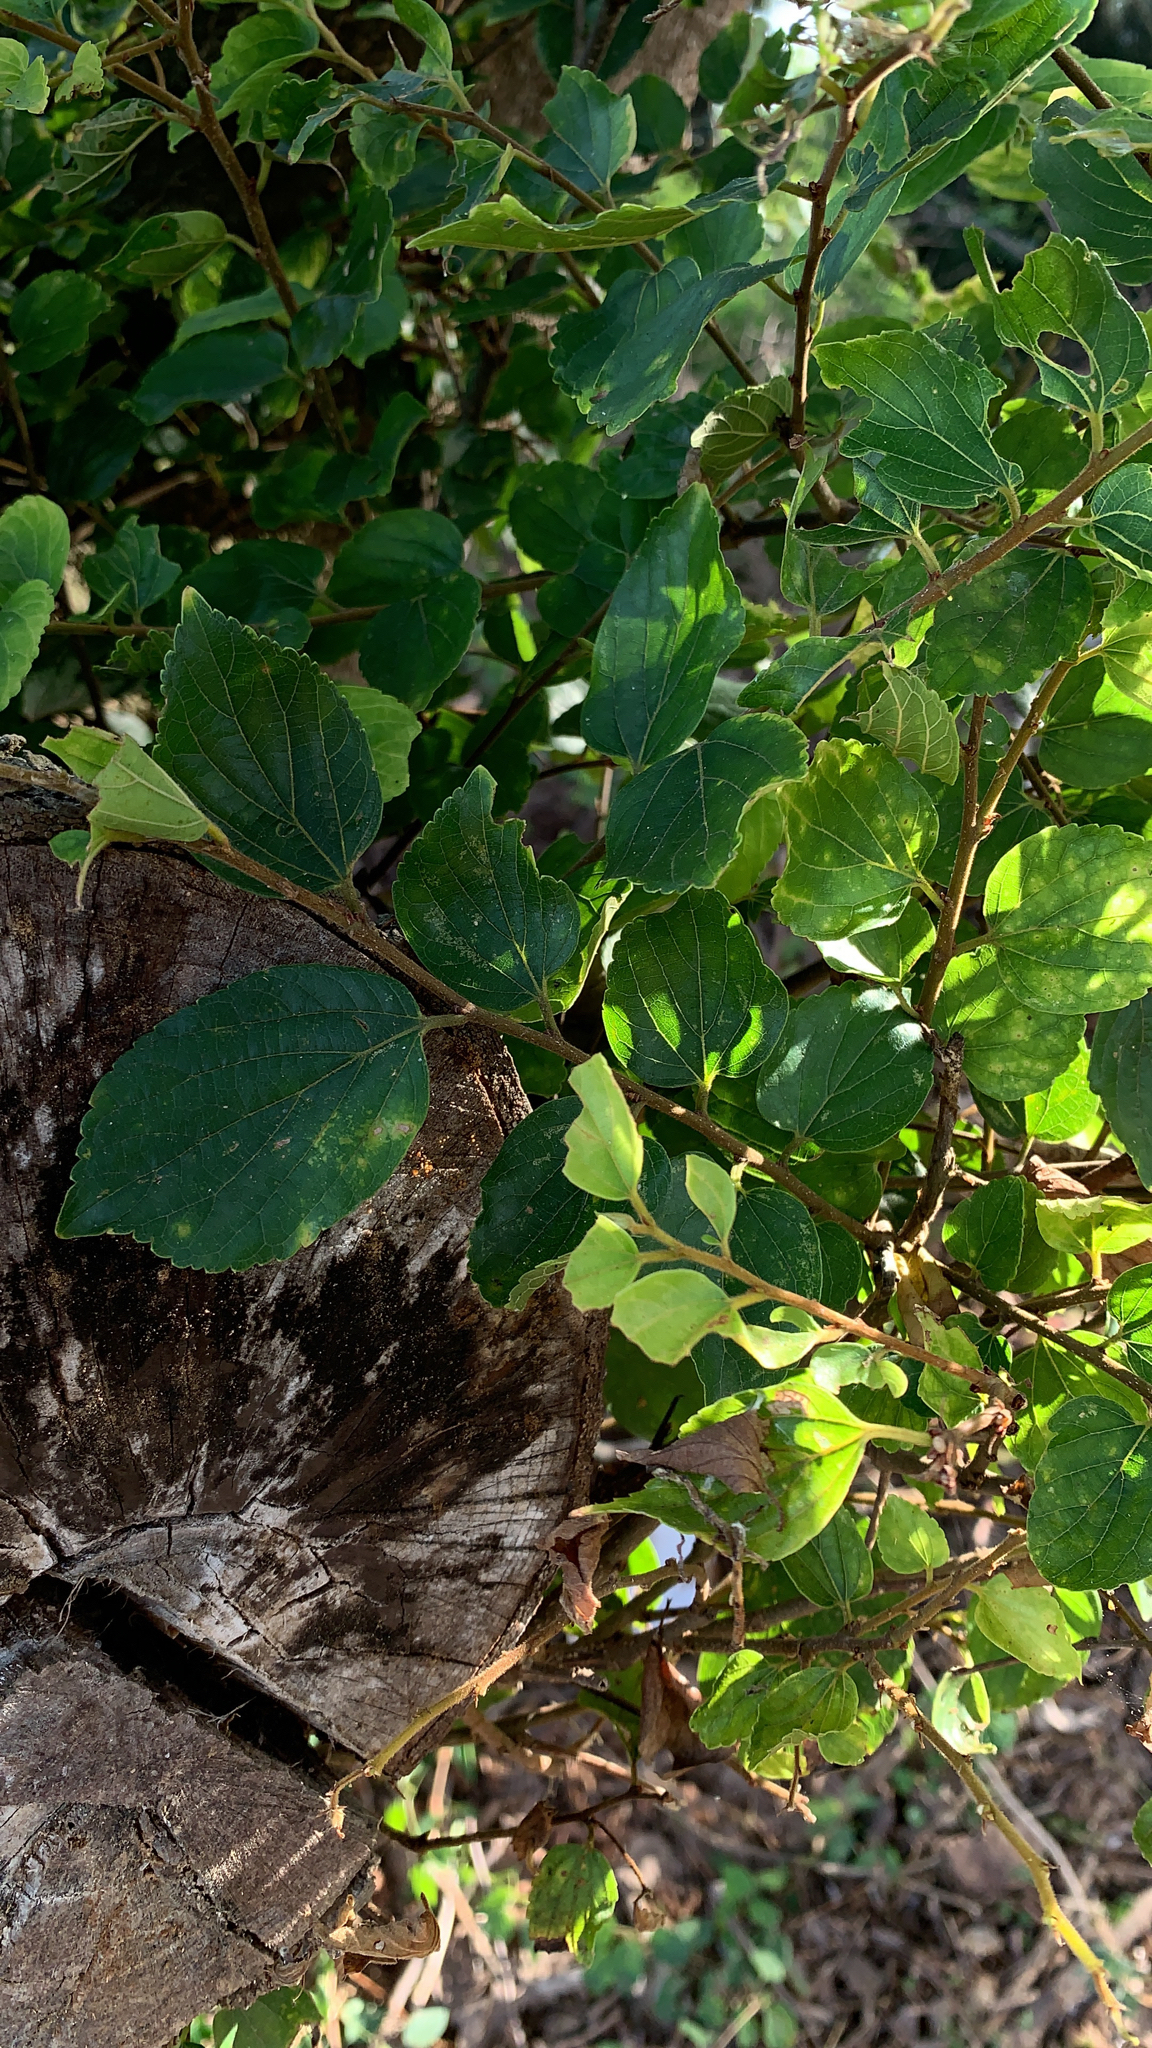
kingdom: Plantae
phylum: Tracheophyta
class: Magnoliopsida
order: Rosales
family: Cannabaceae
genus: Celtis
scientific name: Celtis sinensis
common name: Chinese hackberry
